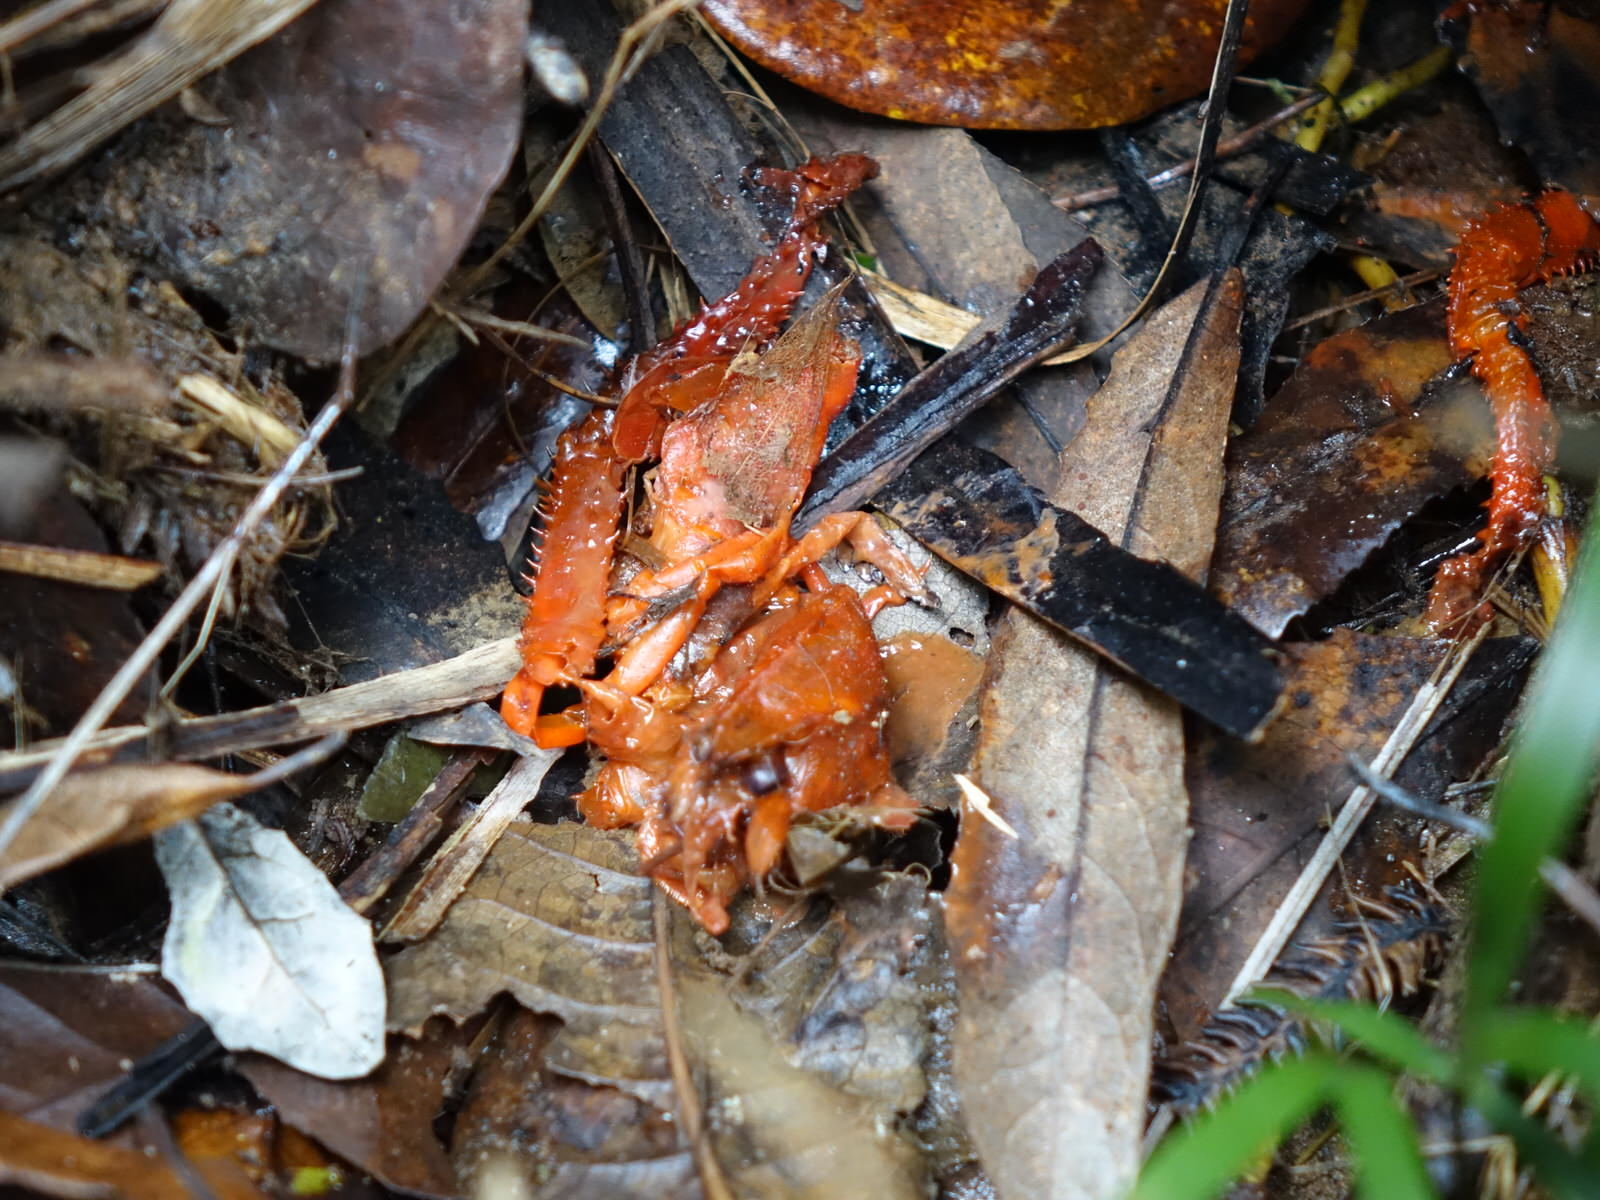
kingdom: Animalia
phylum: Arthropoda
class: Malacostraca
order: Decapoda
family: Parastacidae
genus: Paranephrops
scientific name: Paranephrops planifrons
